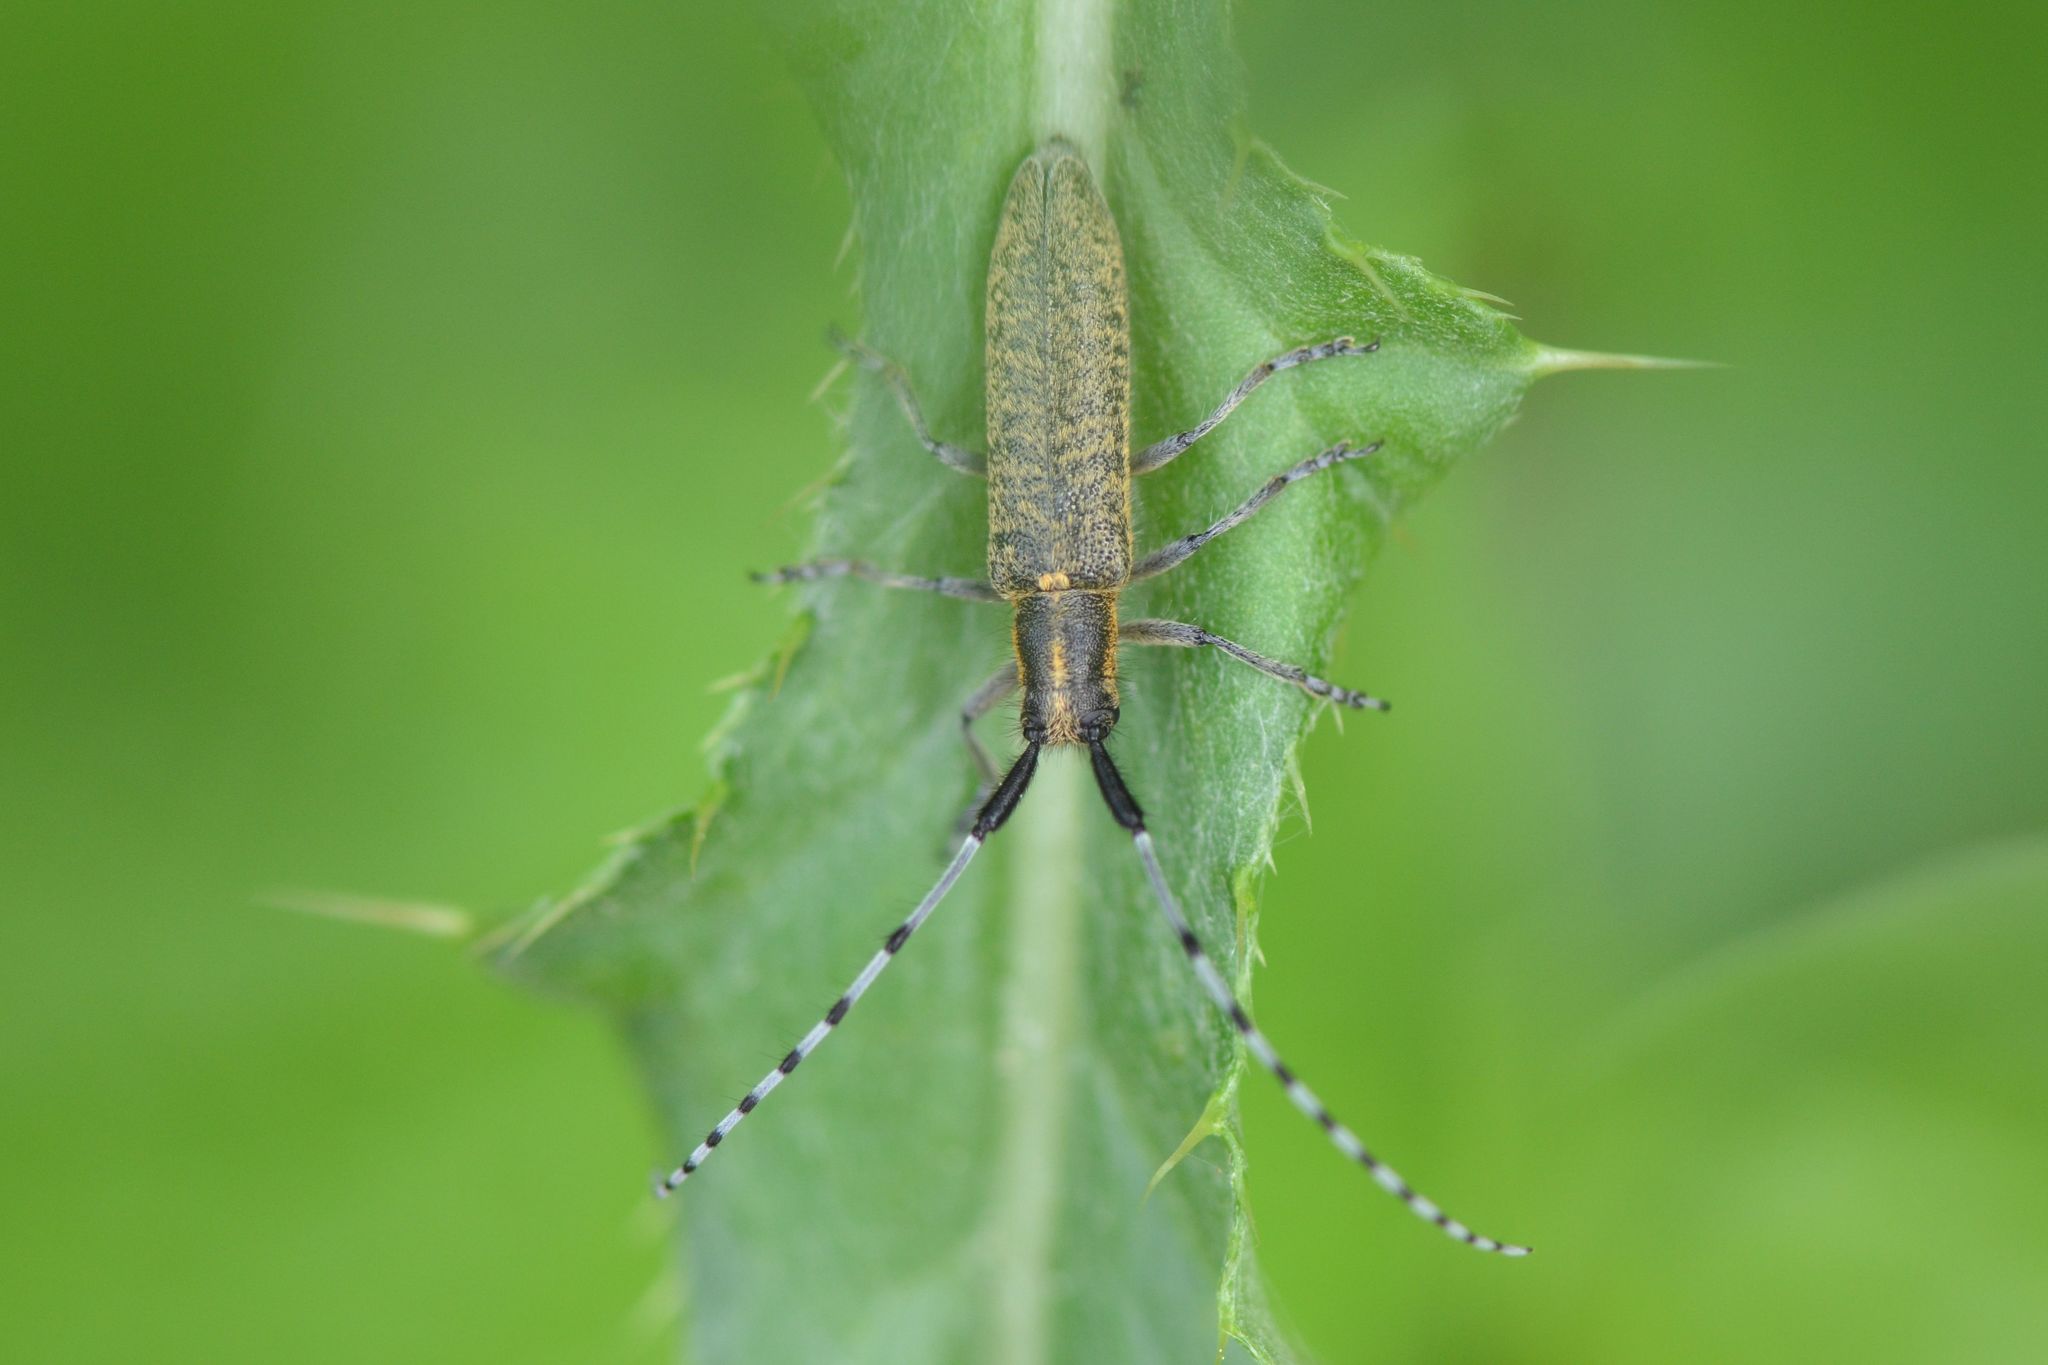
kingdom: Animalia
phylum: Arthropoda
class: Insecta
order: Coleoptera
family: Cerambycidae
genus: Agapanthia
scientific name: Agapanthia villosoviridescens
